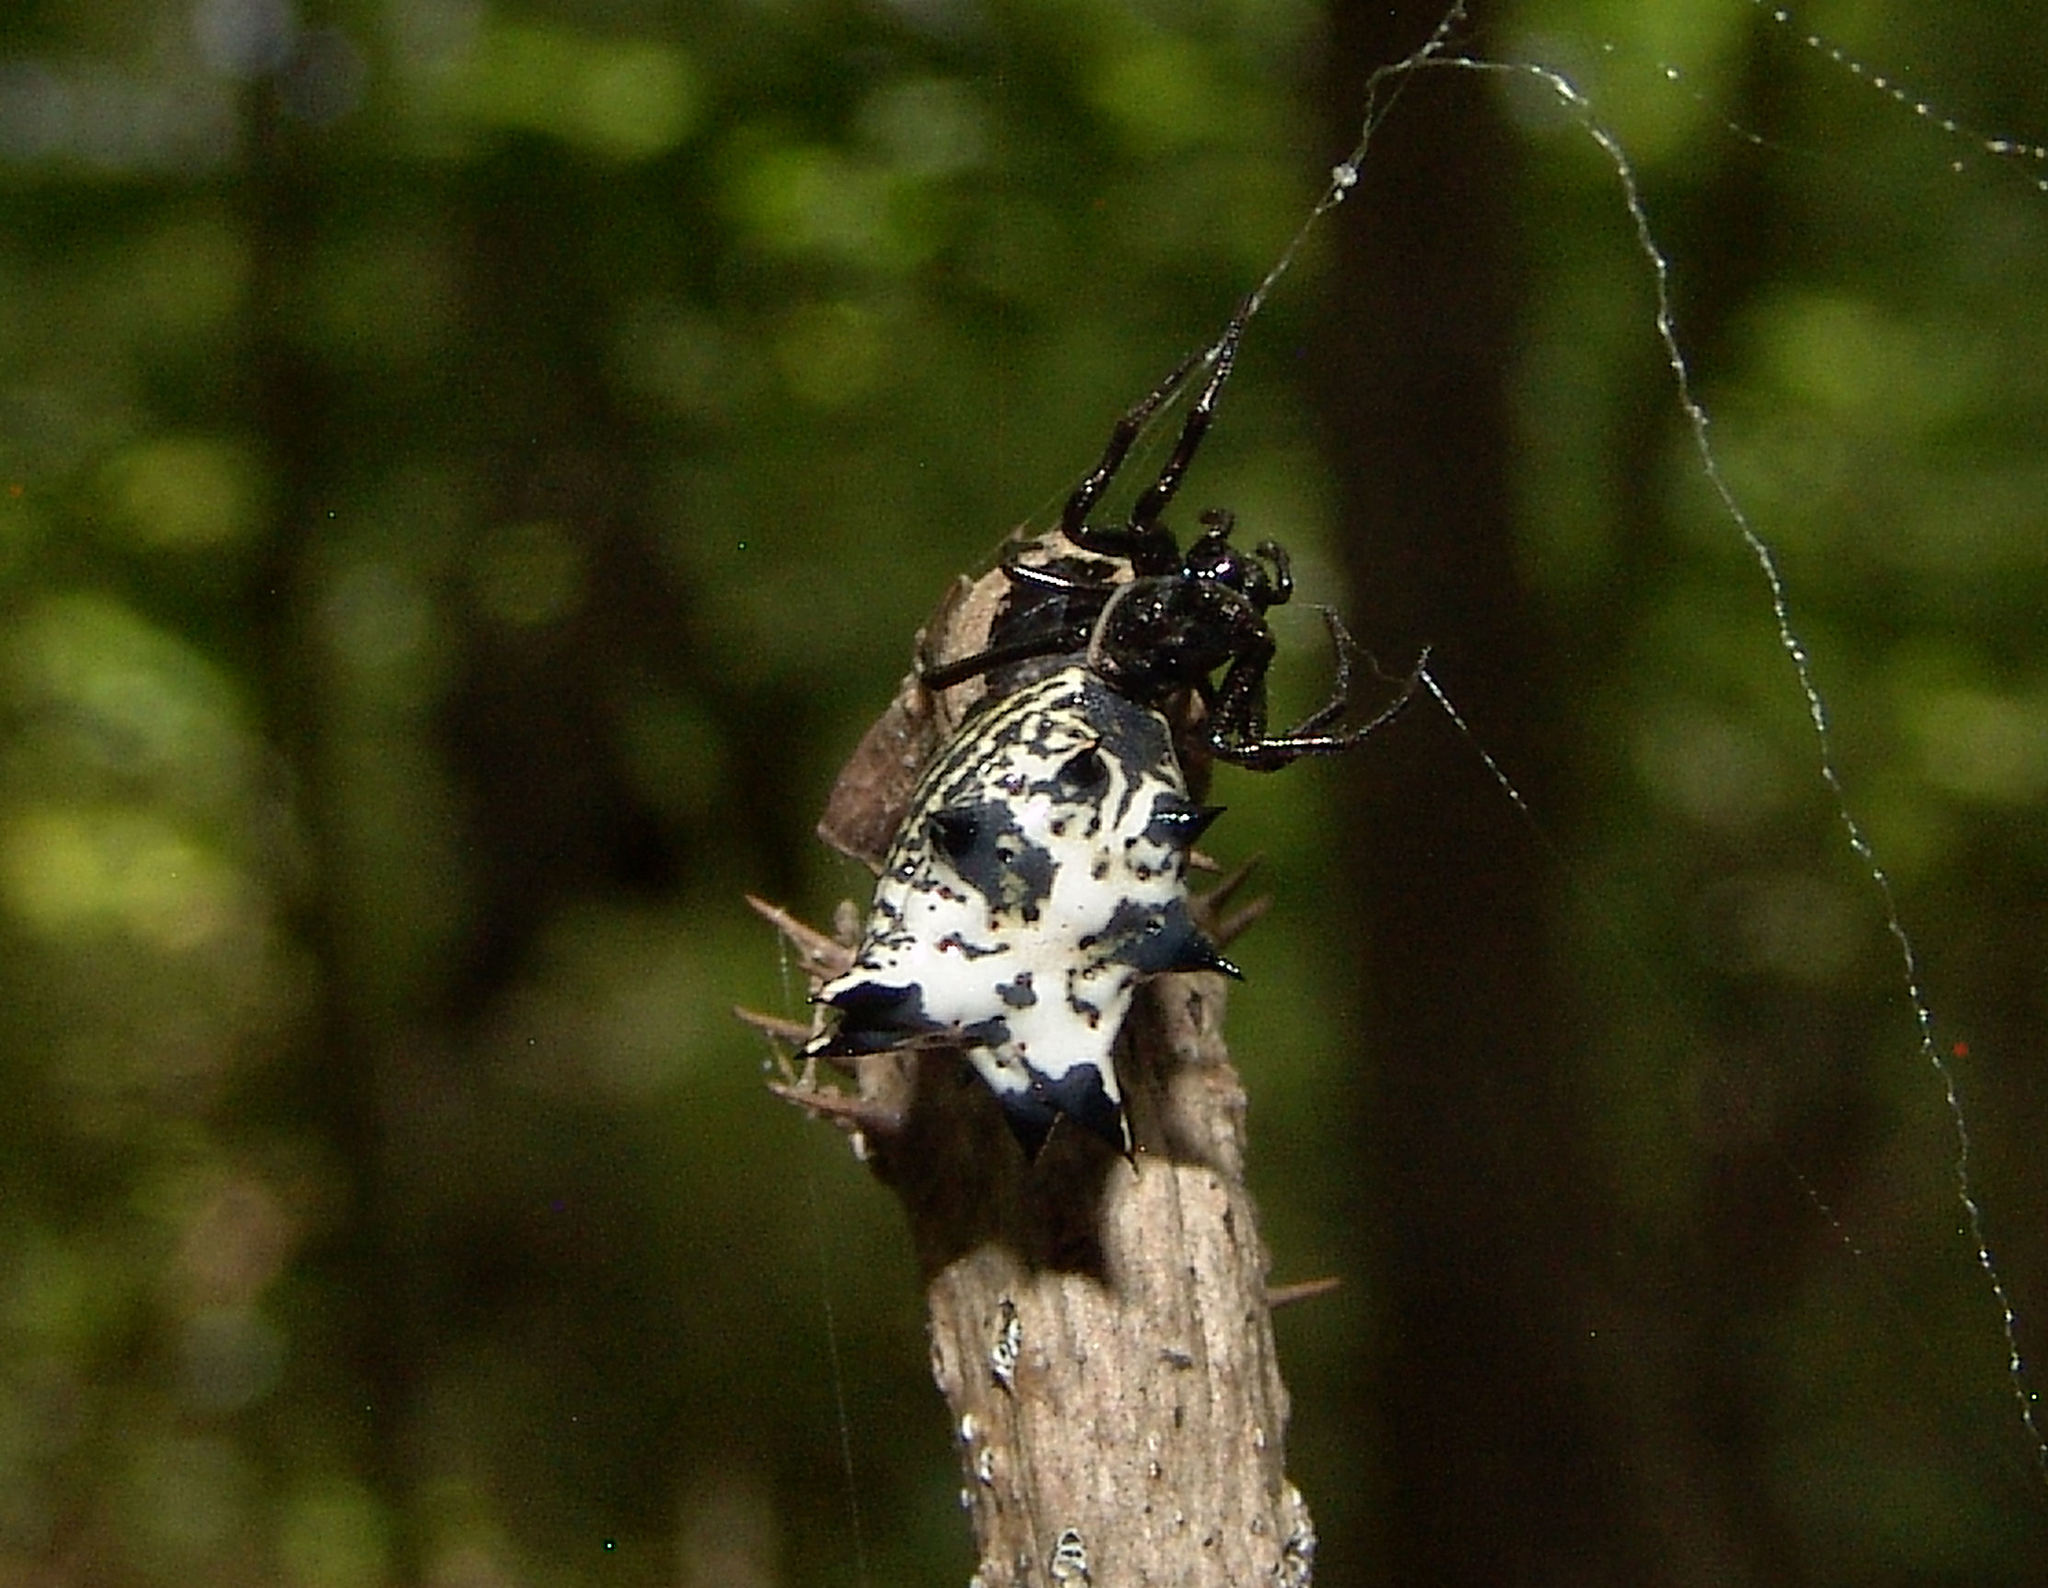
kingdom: Animalia
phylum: Arthropoda
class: Arachnida
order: Araneae
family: Araneidae
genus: Micrathena
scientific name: Micrathena gracilis
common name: Orb weavers
